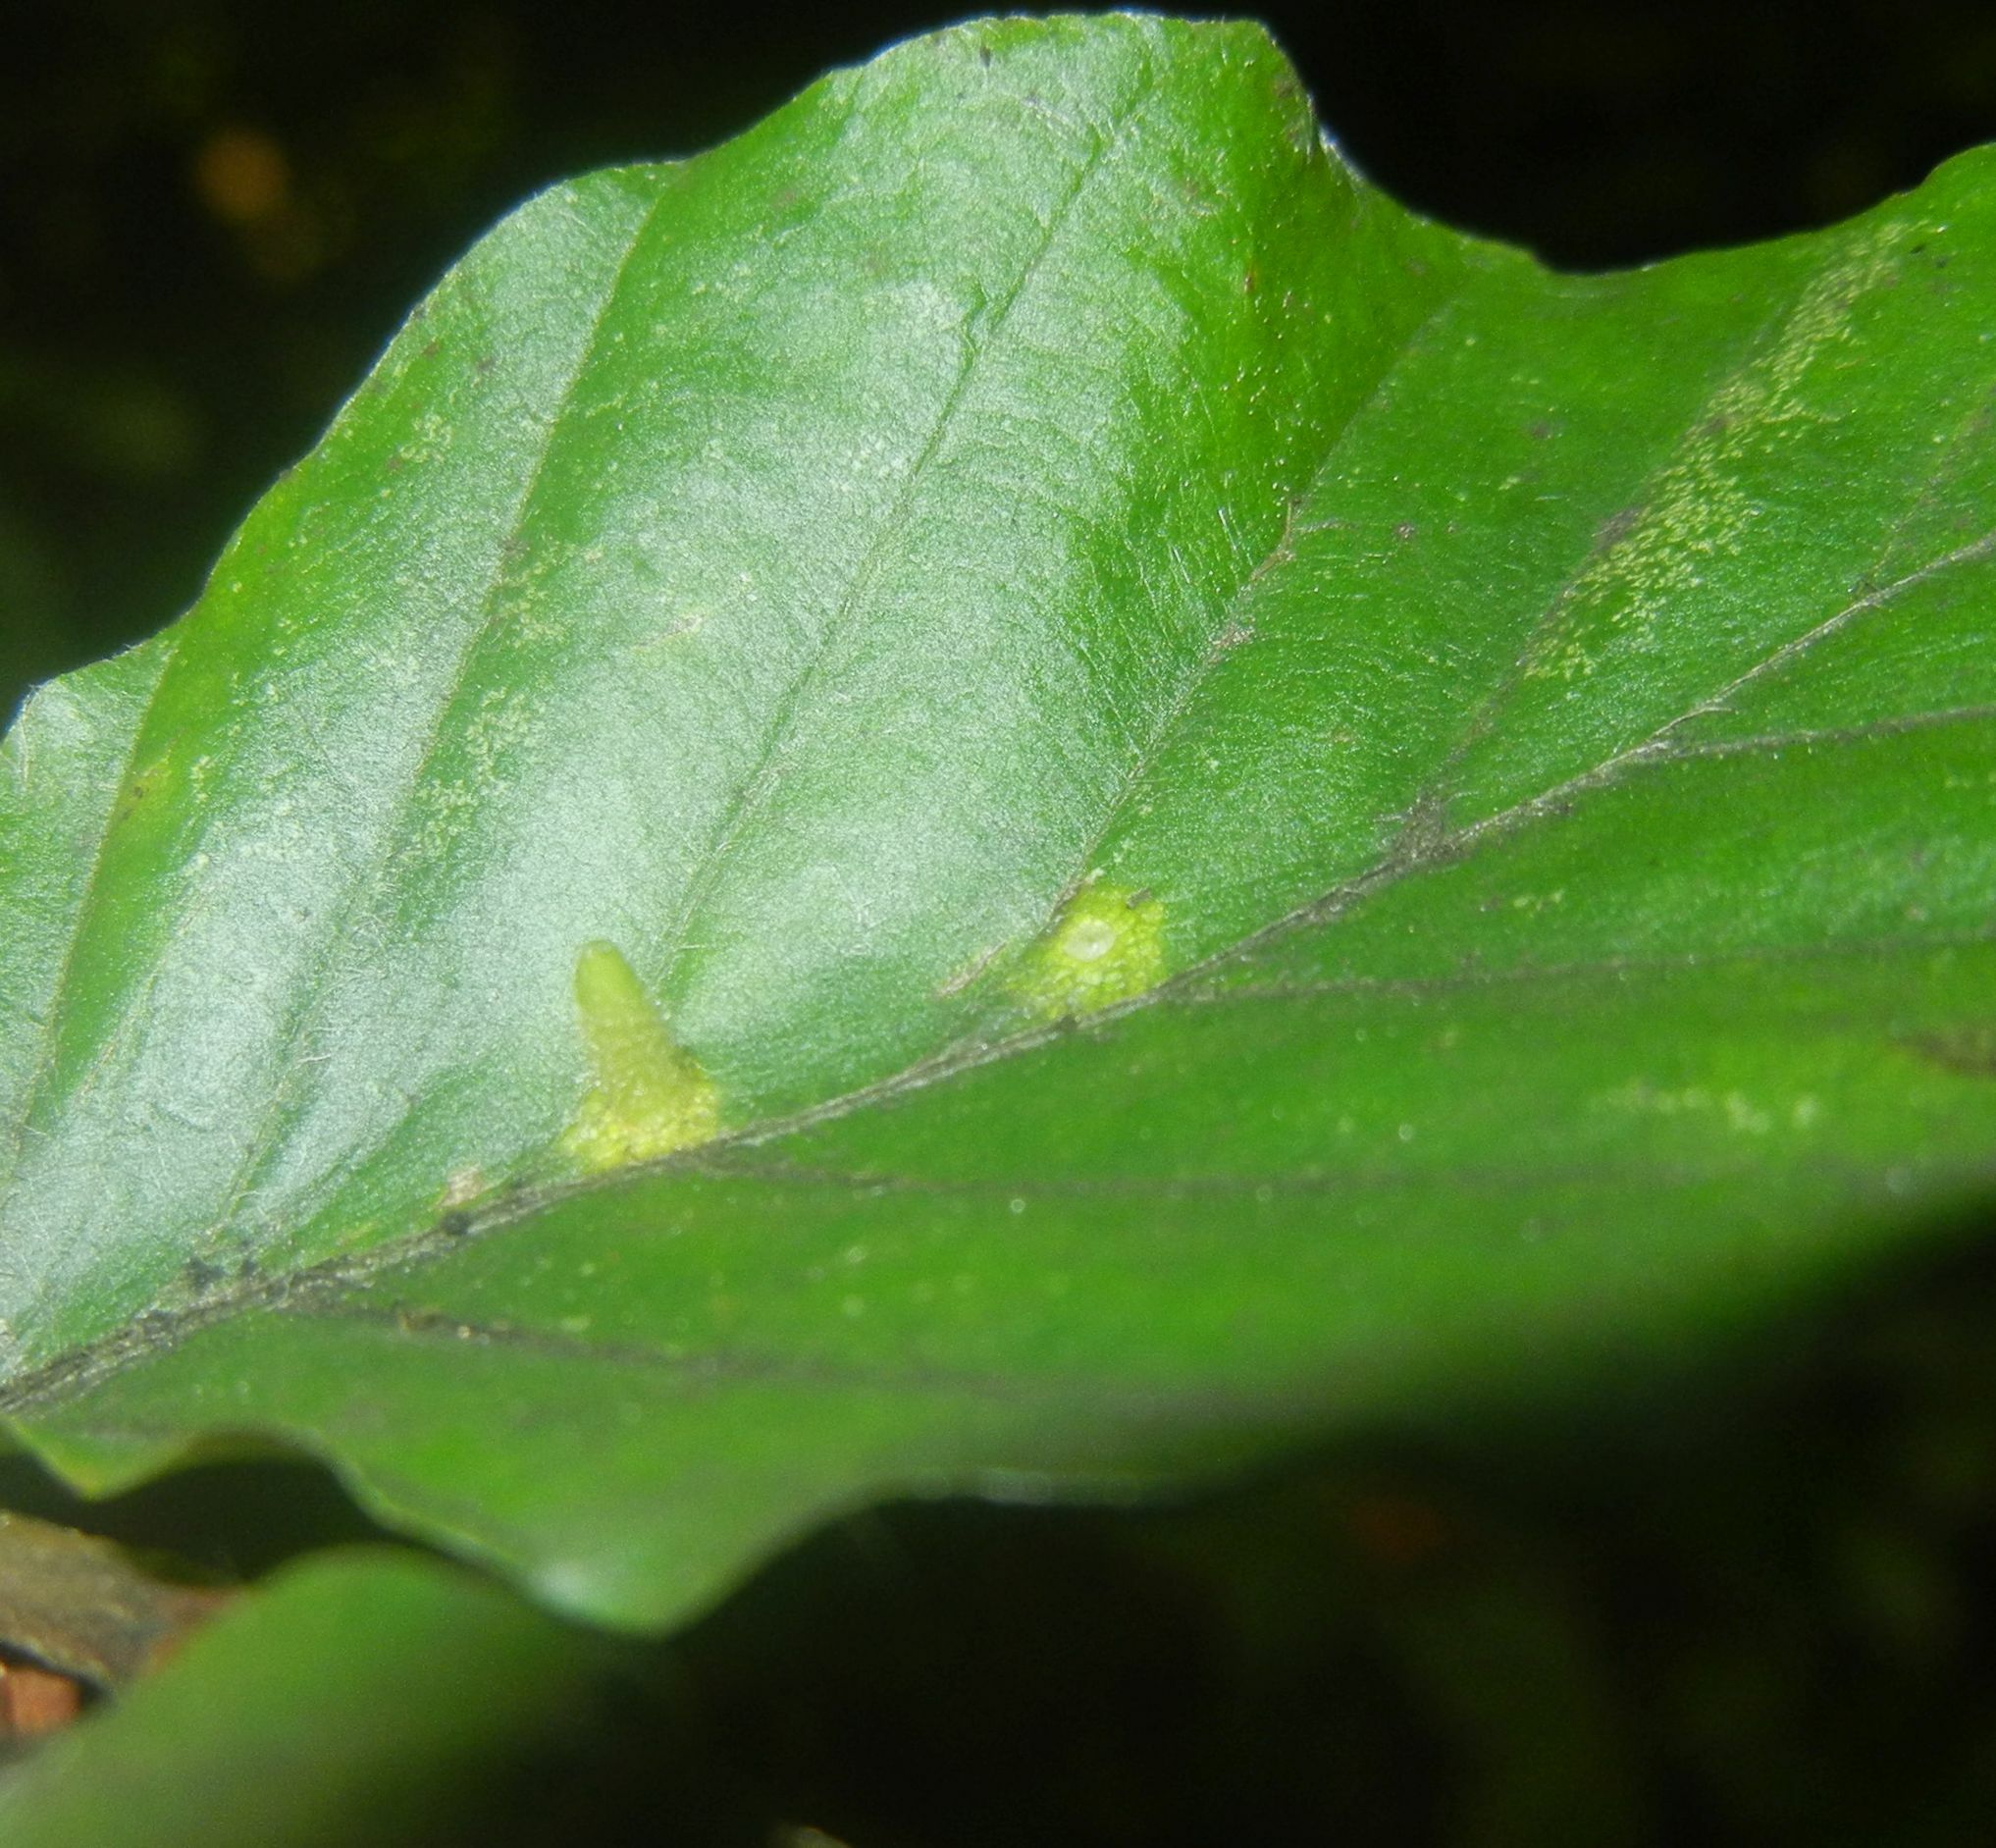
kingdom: Animalia
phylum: Arthropoda
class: Insecta
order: Diptera
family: Cecidomyiidae
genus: Hartigiola
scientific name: Hartigiola annulipes
